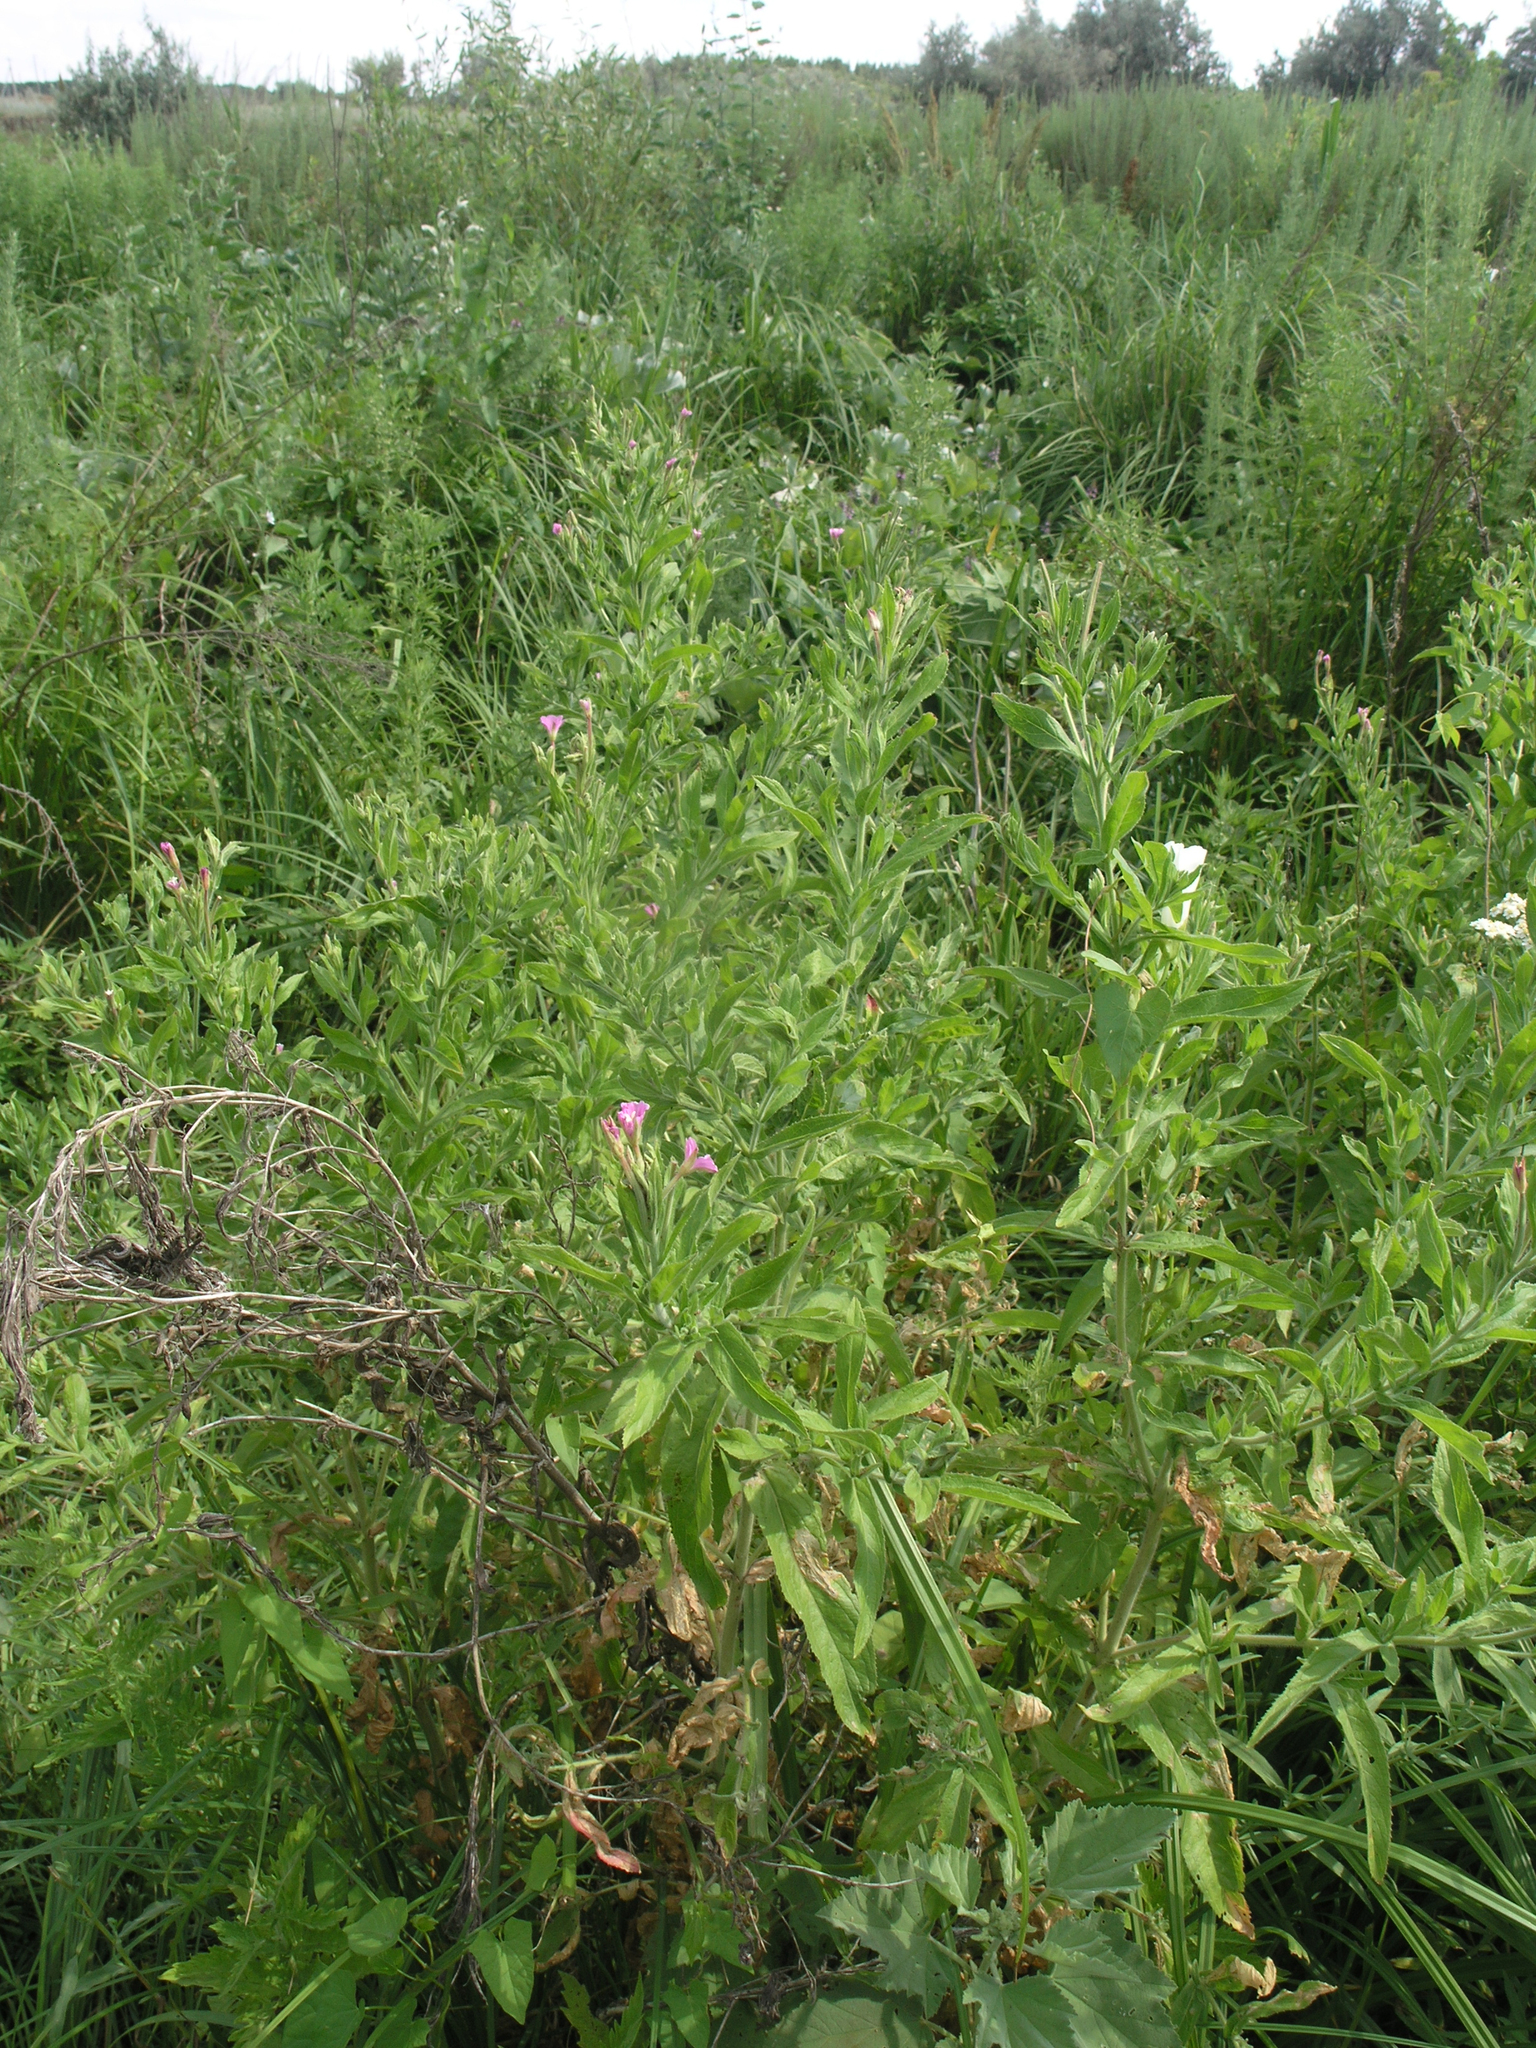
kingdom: Plantae
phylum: Tracheophyta
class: Magnoliopsida
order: Myrtales
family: Onagraceae
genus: Epilobium
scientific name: Epilobium hirsutum
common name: Great willowherb
